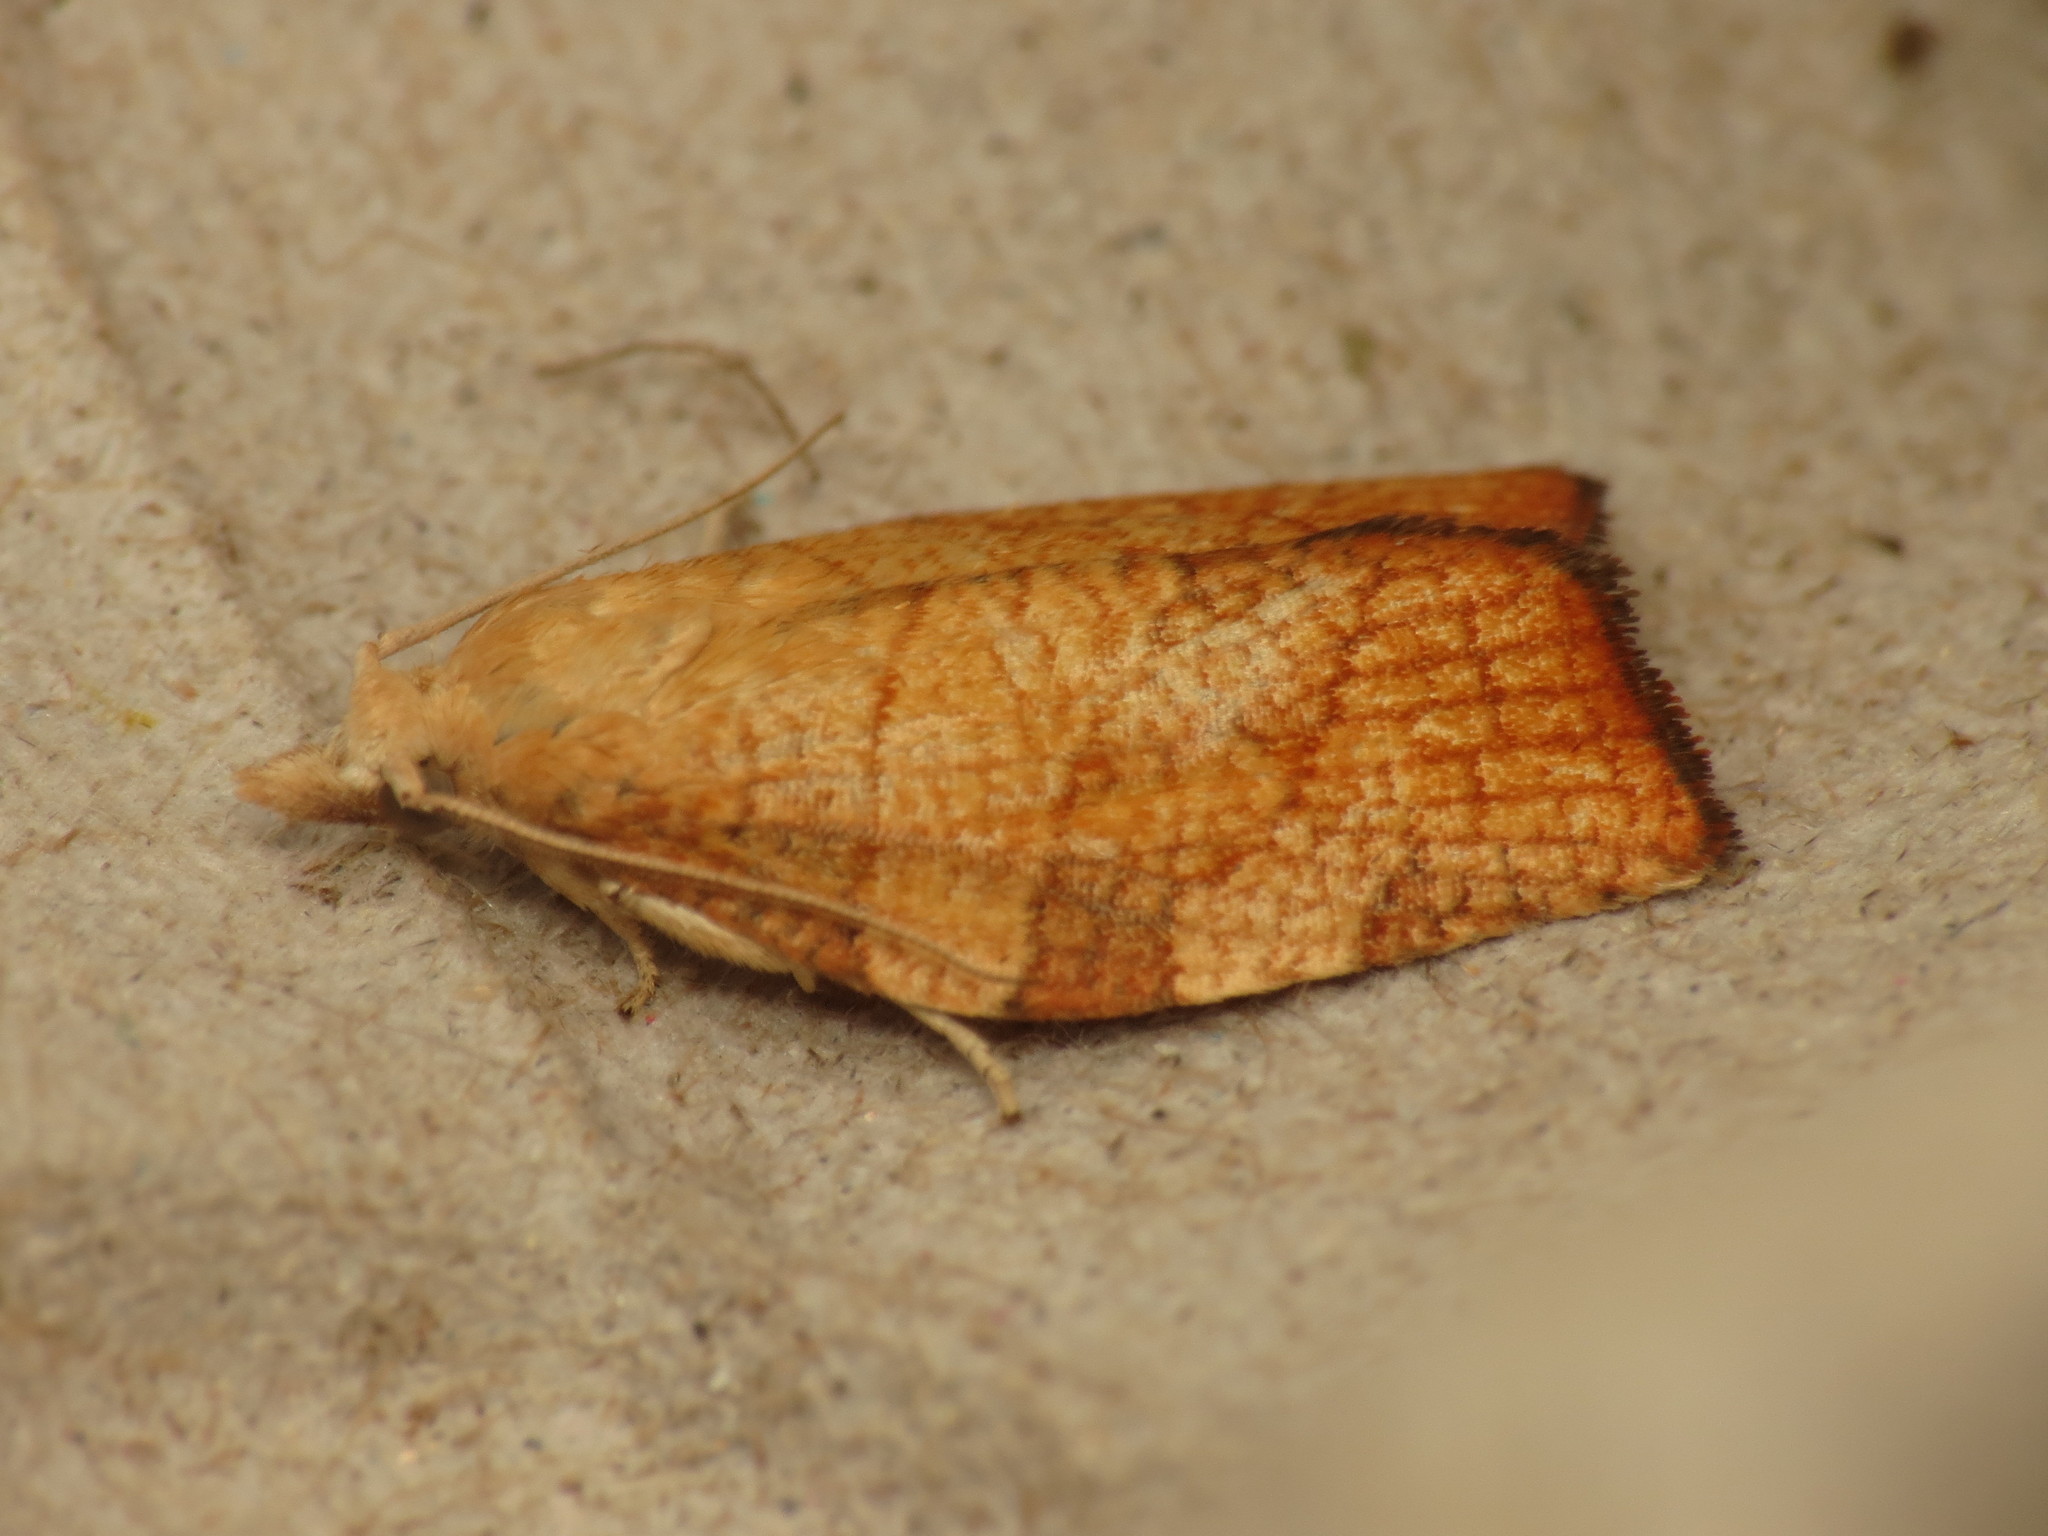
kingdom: Animalia
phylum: Arthropoda
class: Insecta
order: Lepidoptera
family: Tortricidae
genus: Pandemis
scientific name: Pandemis corylana
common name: Chequered fruit-tree tortrix
